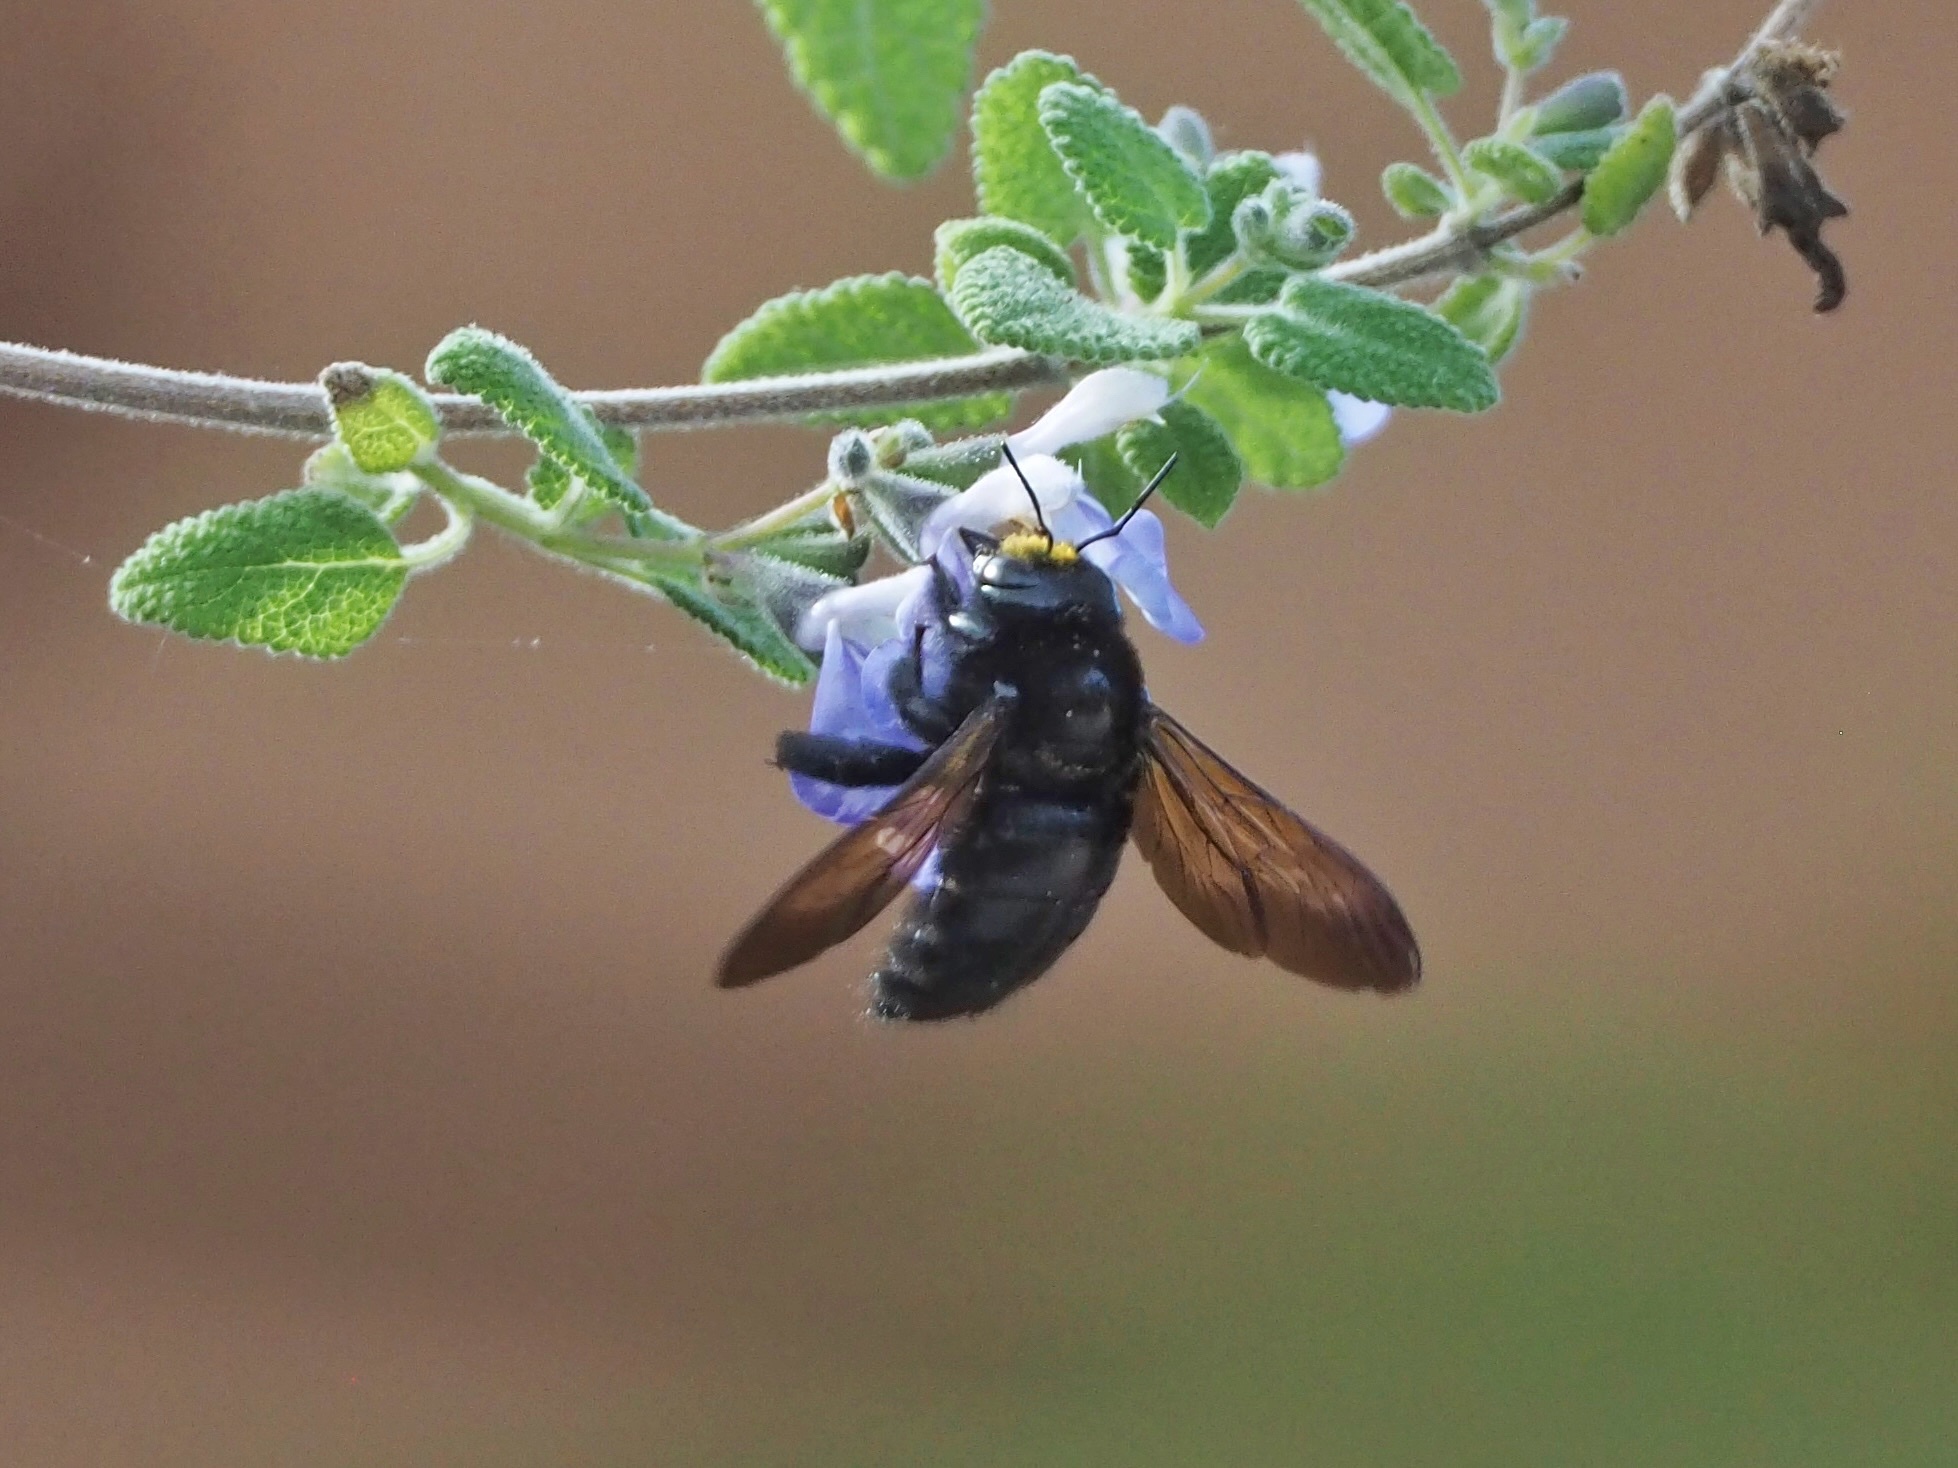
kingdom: Animalia
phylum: Arthropoda
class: Insecta
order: Hymenoptera
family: Apidae
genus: Xylocopa
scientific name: Xylocopa sonorina
